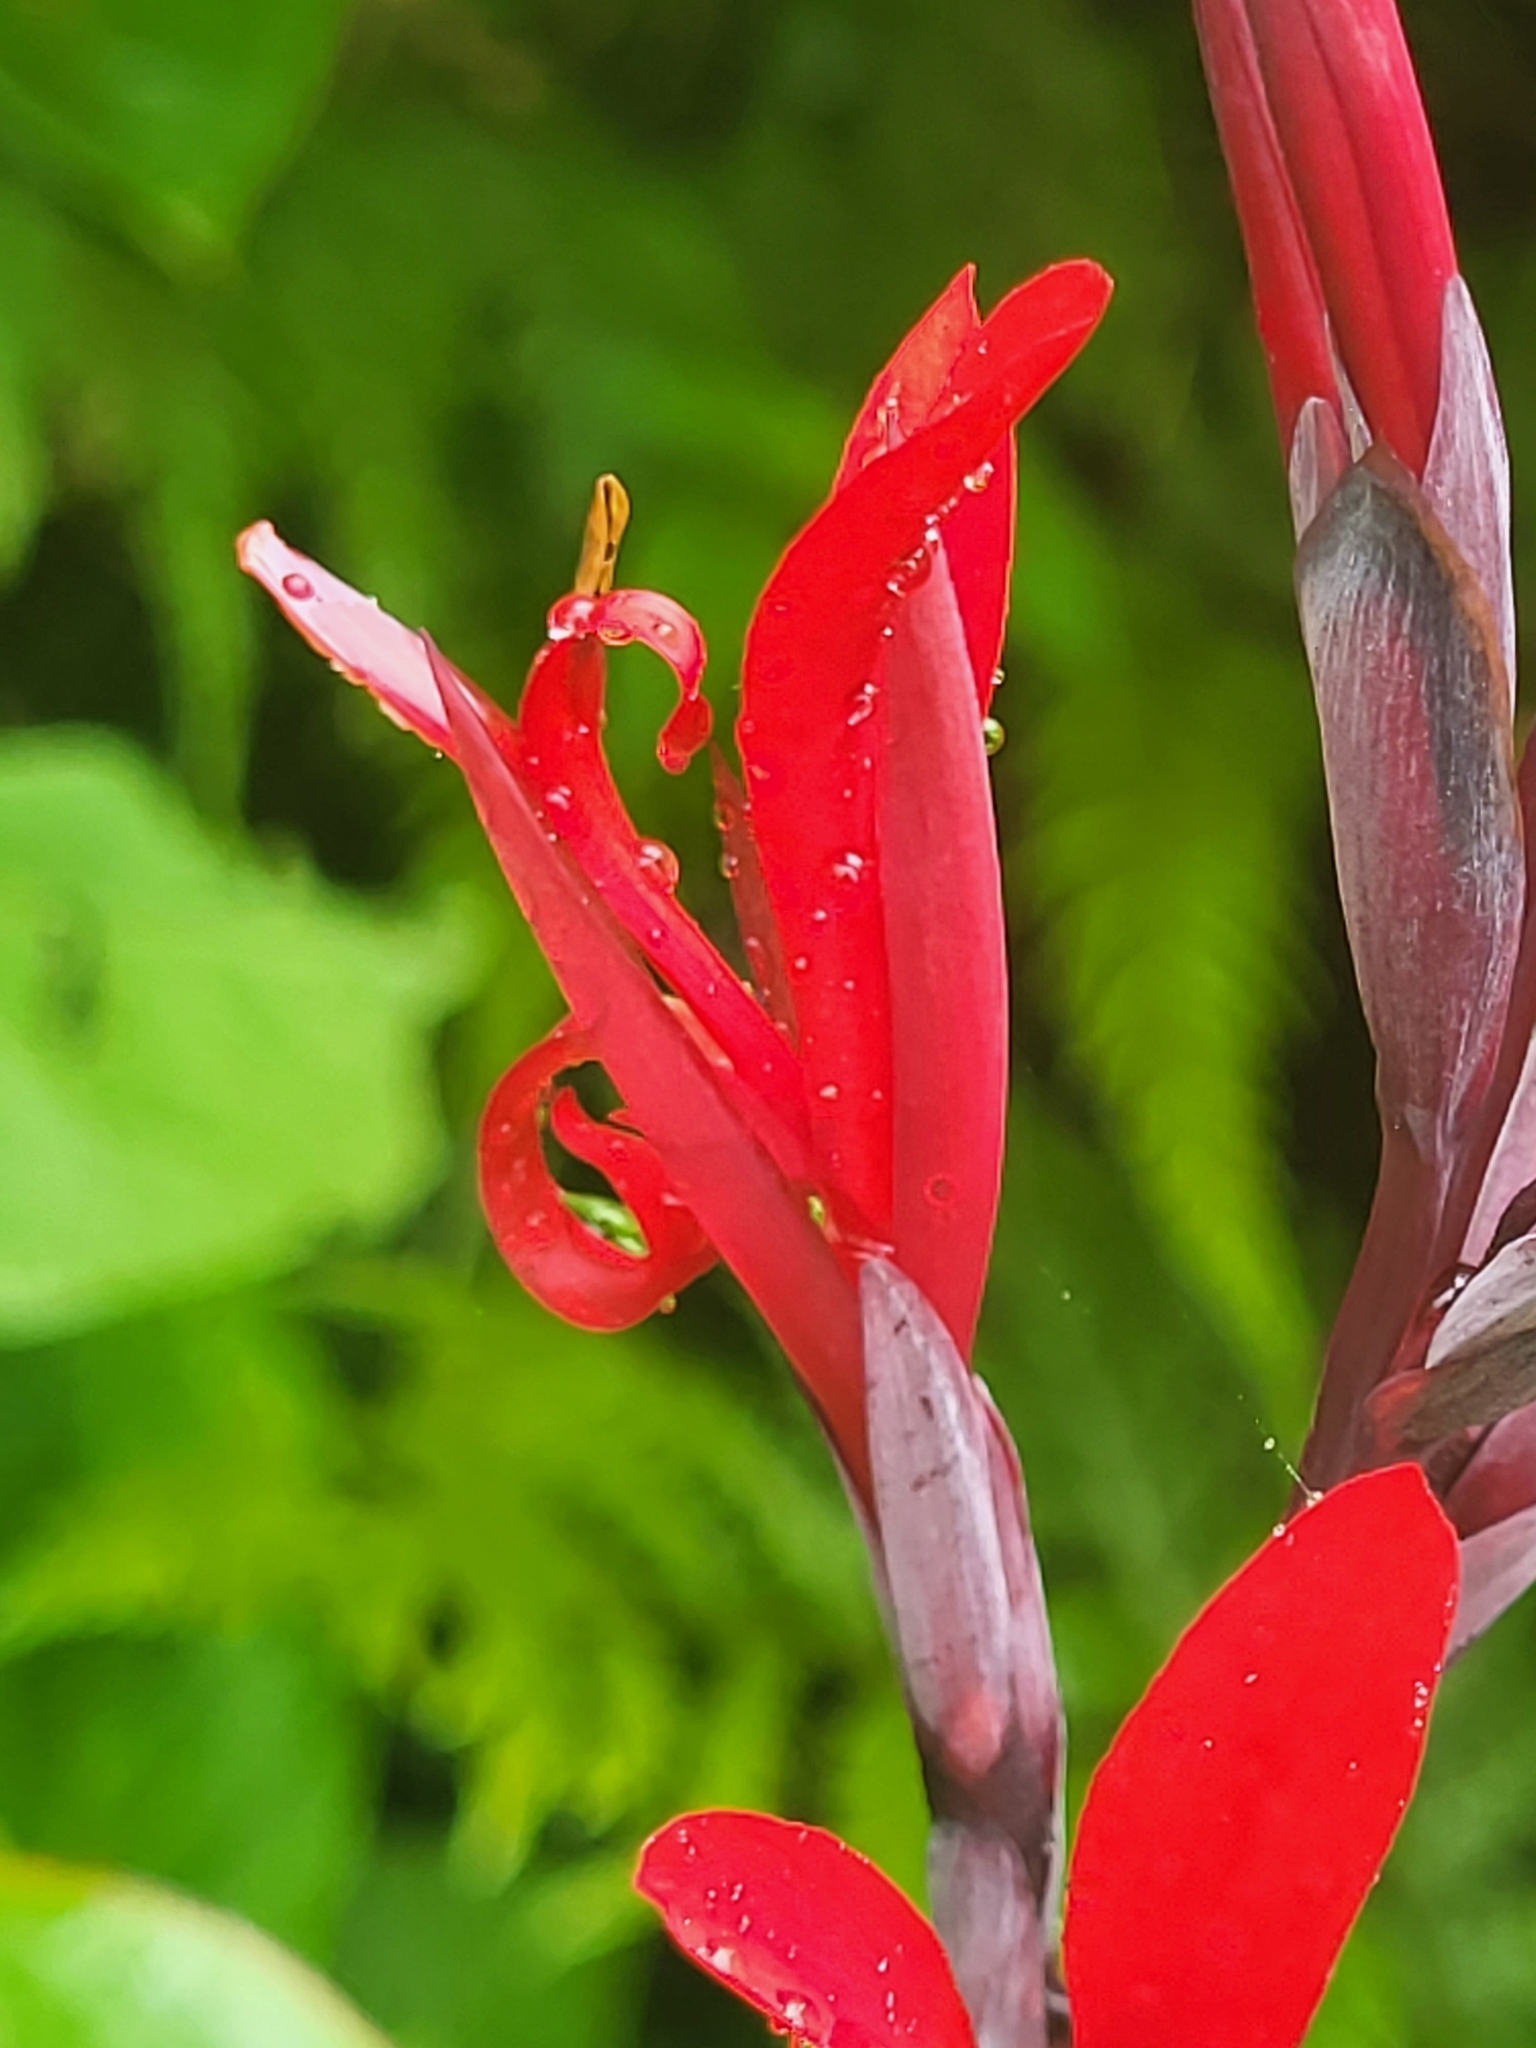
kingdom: Plantae
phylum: Tracheophyta
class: Liliopsida
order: Zingiberales
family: Cannaceae
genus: Canna
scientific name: Canna indica
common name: Indian shot
